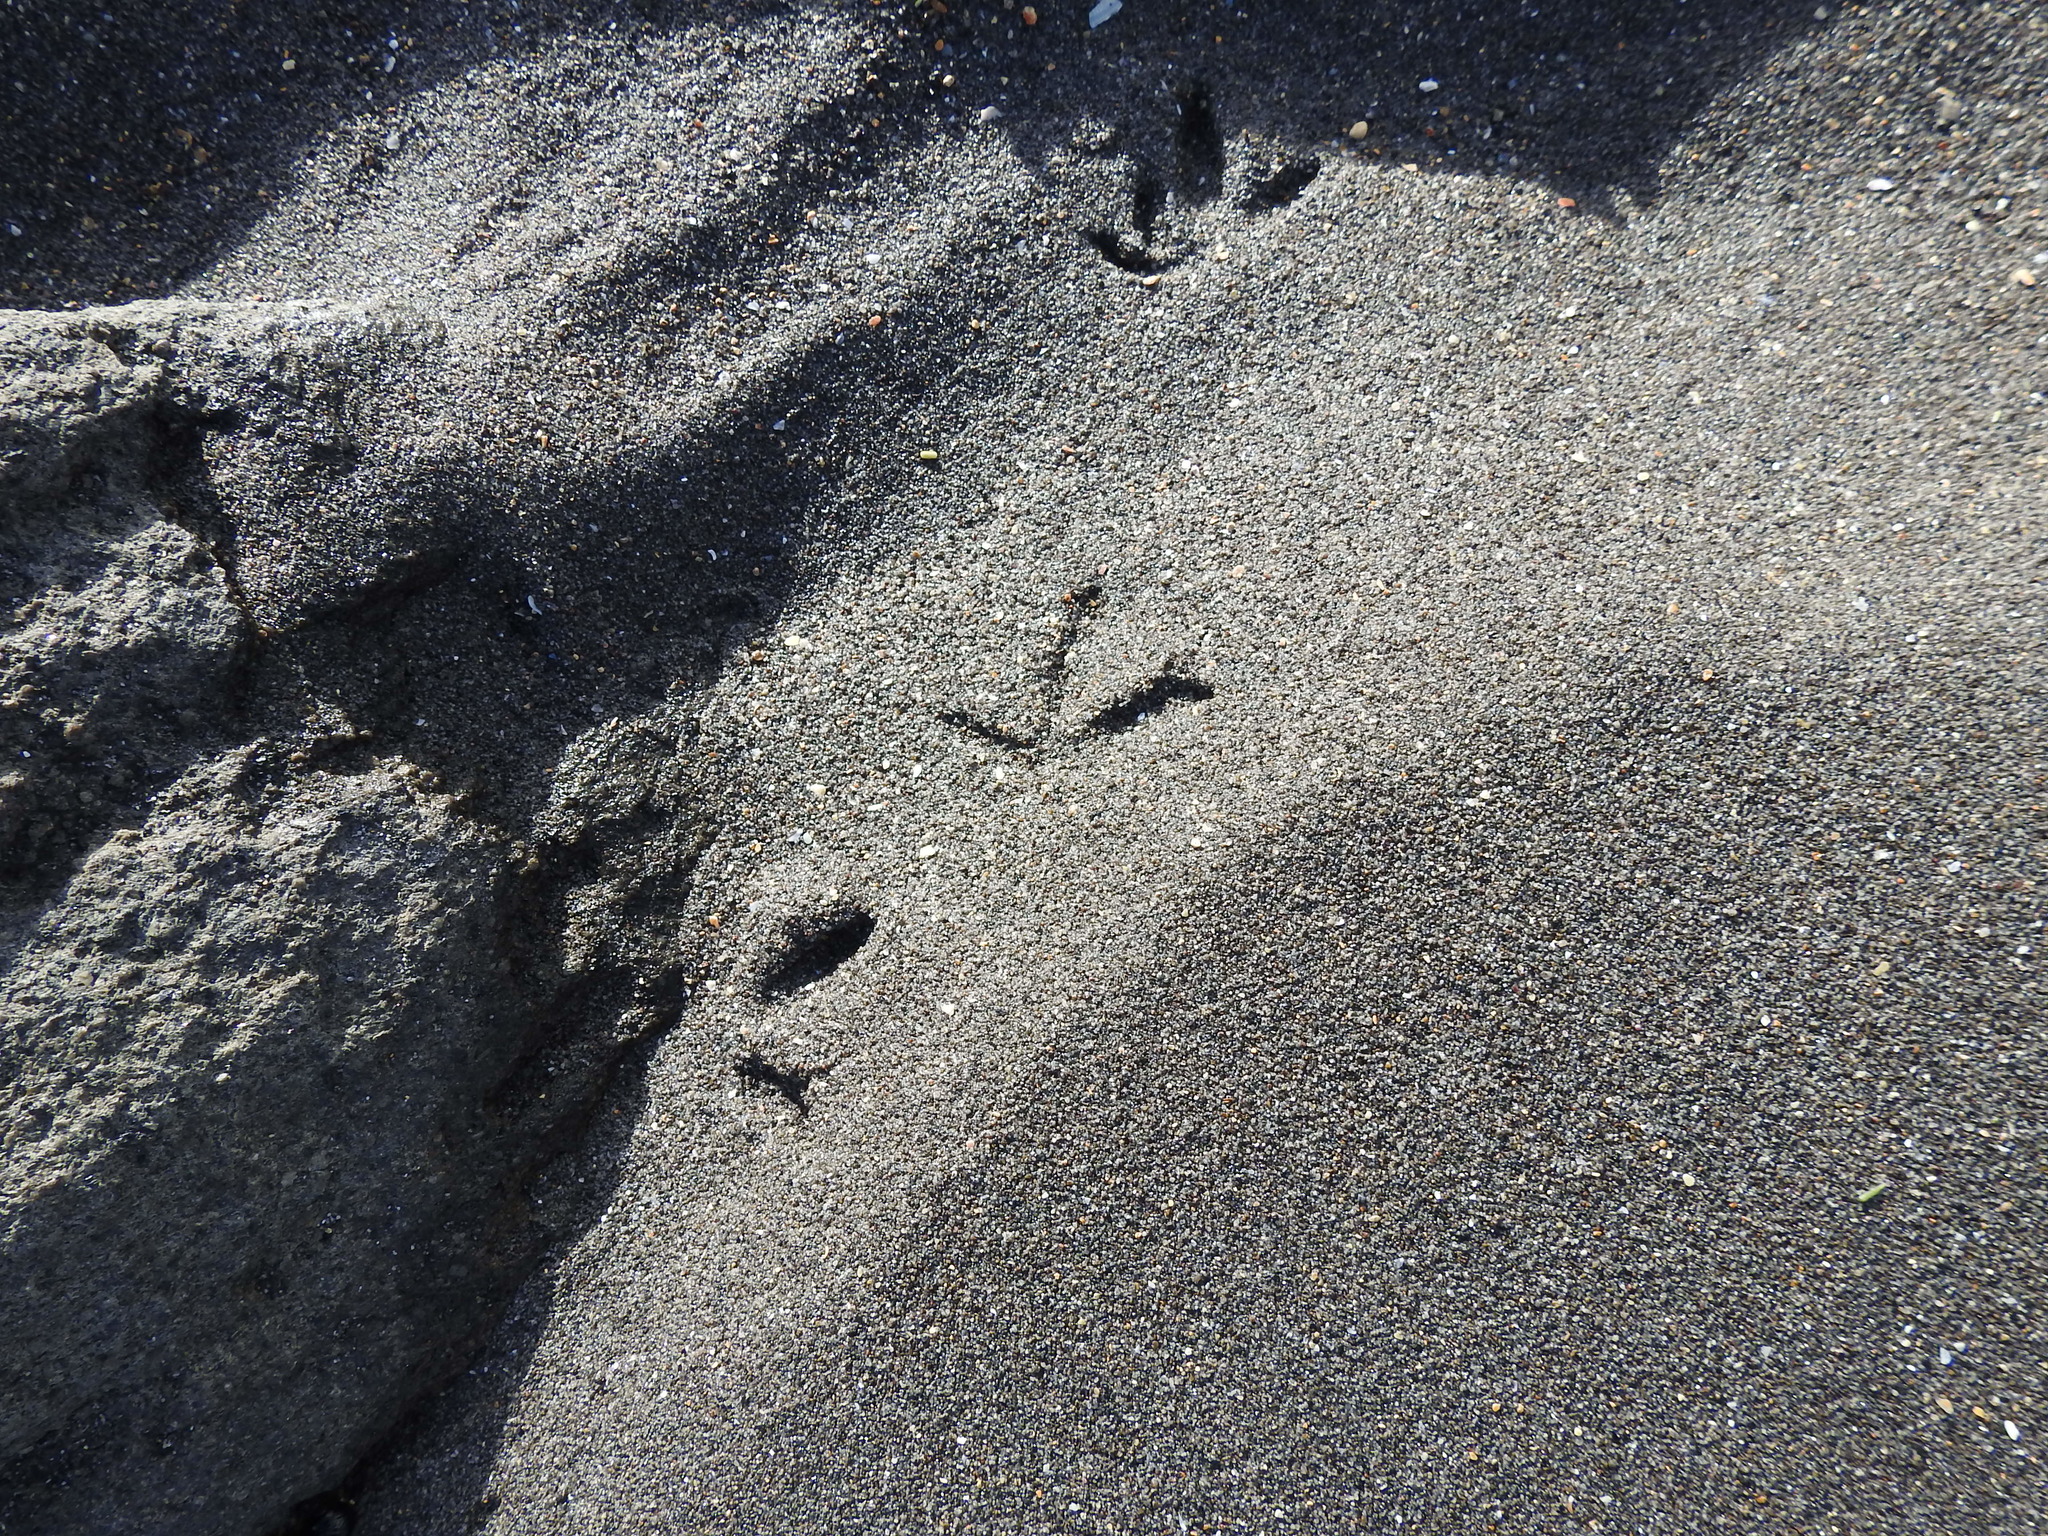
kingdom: Animalia
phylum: Chordata
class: Aves
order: Charadriiformes
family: Charadriidae
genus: Anarhynchus
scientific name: Anarhynchus
